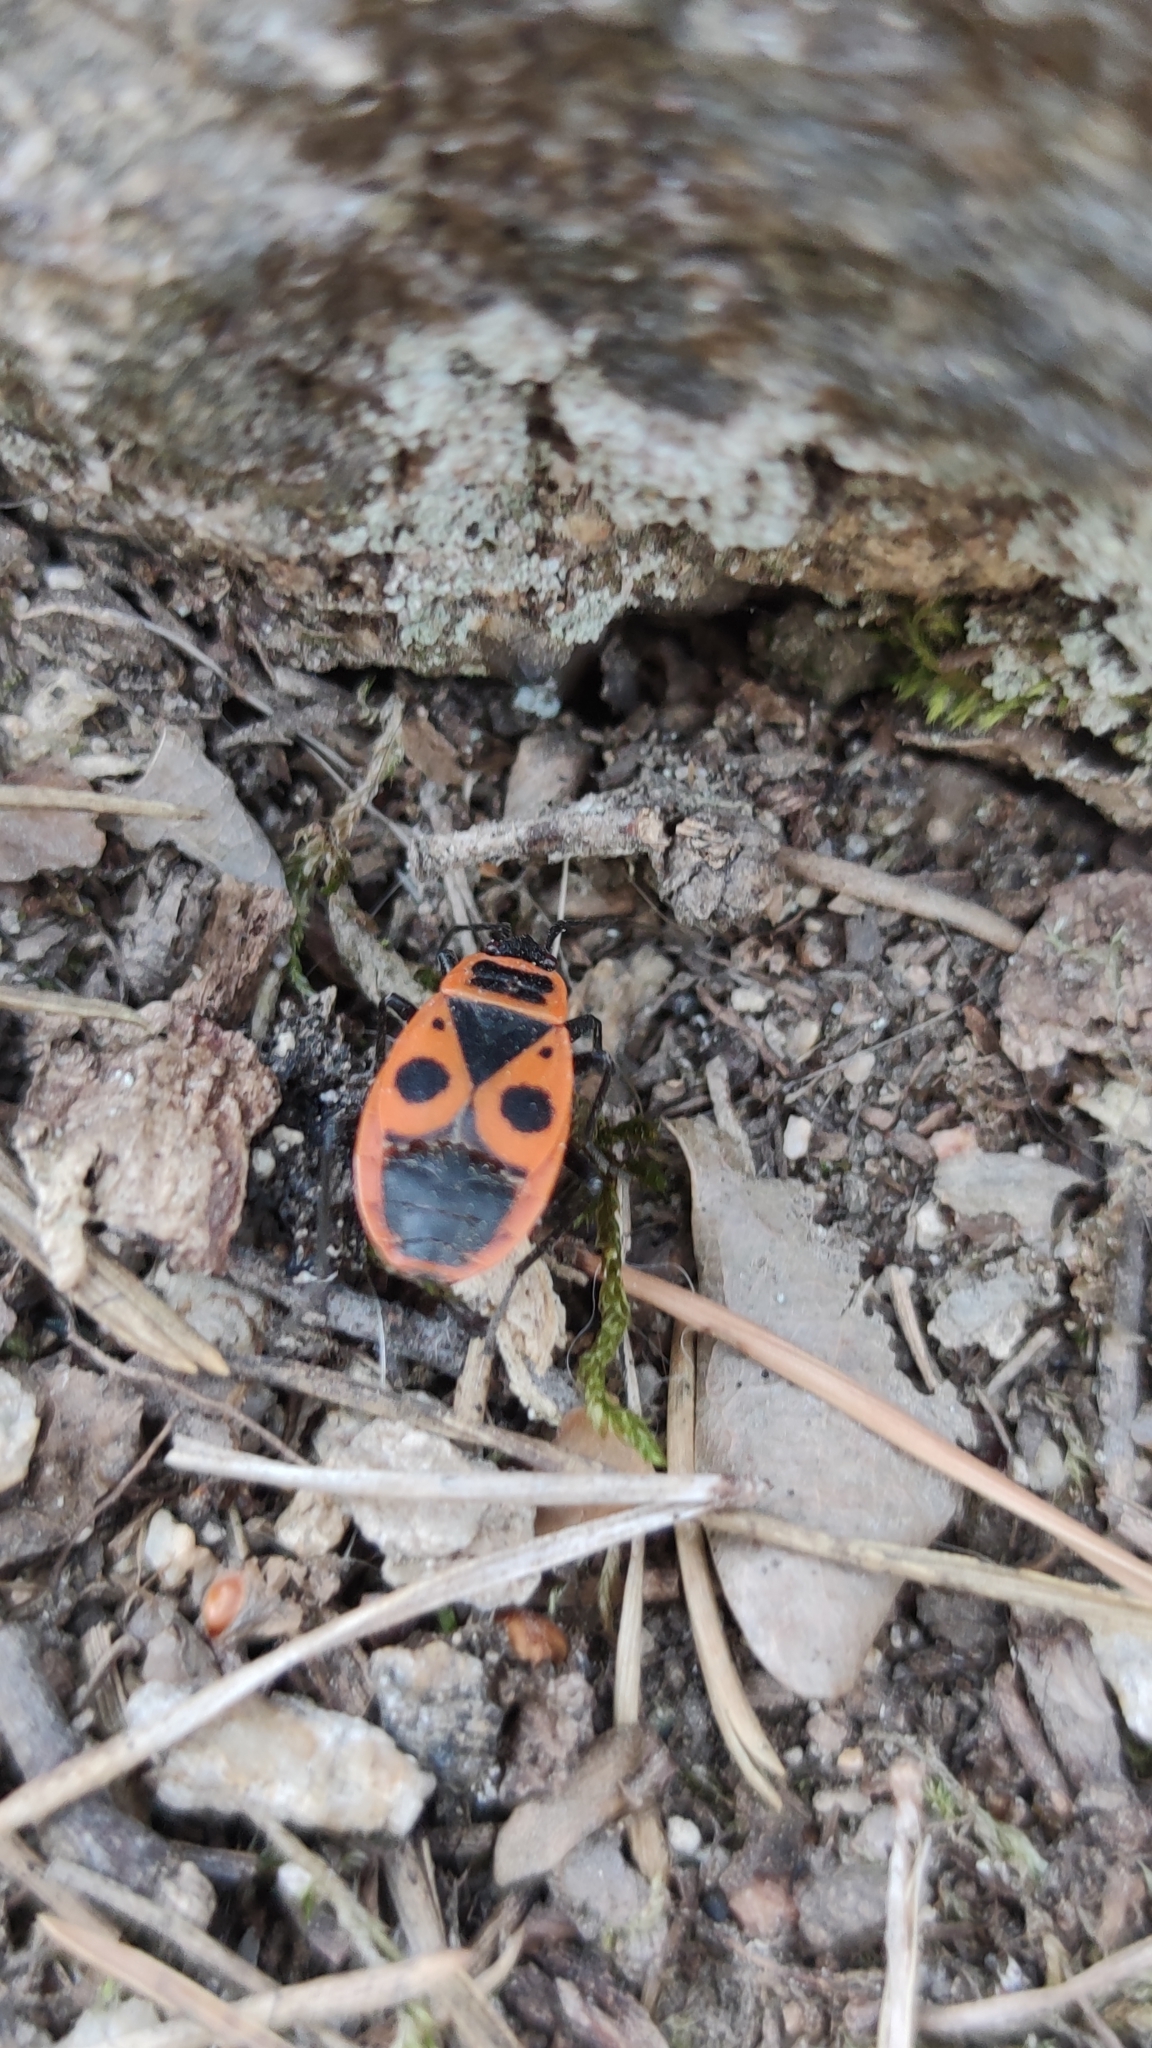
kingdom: Animalia
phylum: Arthropoda
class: Insecta
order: Hemiptera
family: Pyrrhocoridae
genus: Pyrrhocoris
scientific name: Pyrrhocoris apterus
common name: Firebug
